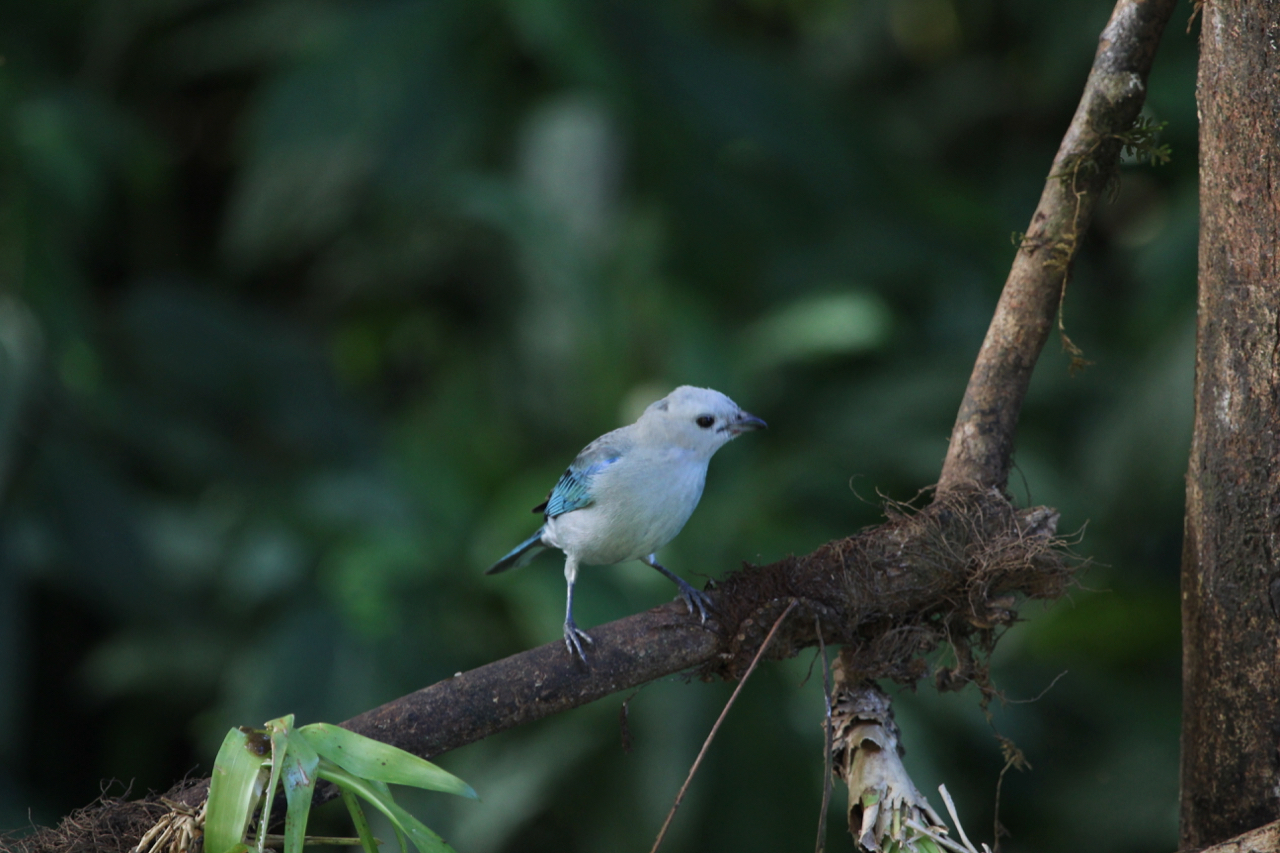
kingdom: Animalia
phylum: Chordata
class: Aves
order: Passeriformes
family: Thraupidae
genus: Thraupis
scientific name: Thraupis episcopus
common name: Blue-grey tanager
